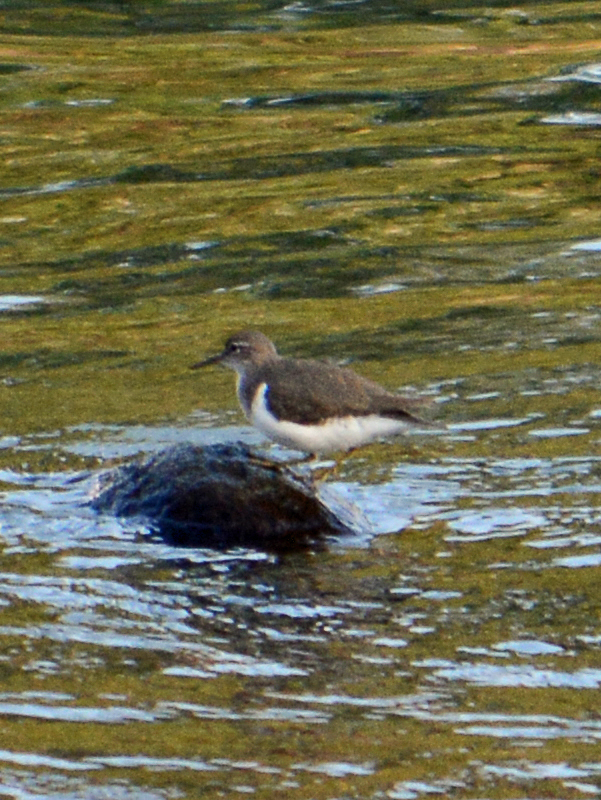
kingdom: Animalia
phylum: Chordata
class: Aves
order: Charadriiformes
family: Scolopacidae
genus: Actitis
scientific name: Actitis macularius
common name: Spotted sandpiper
